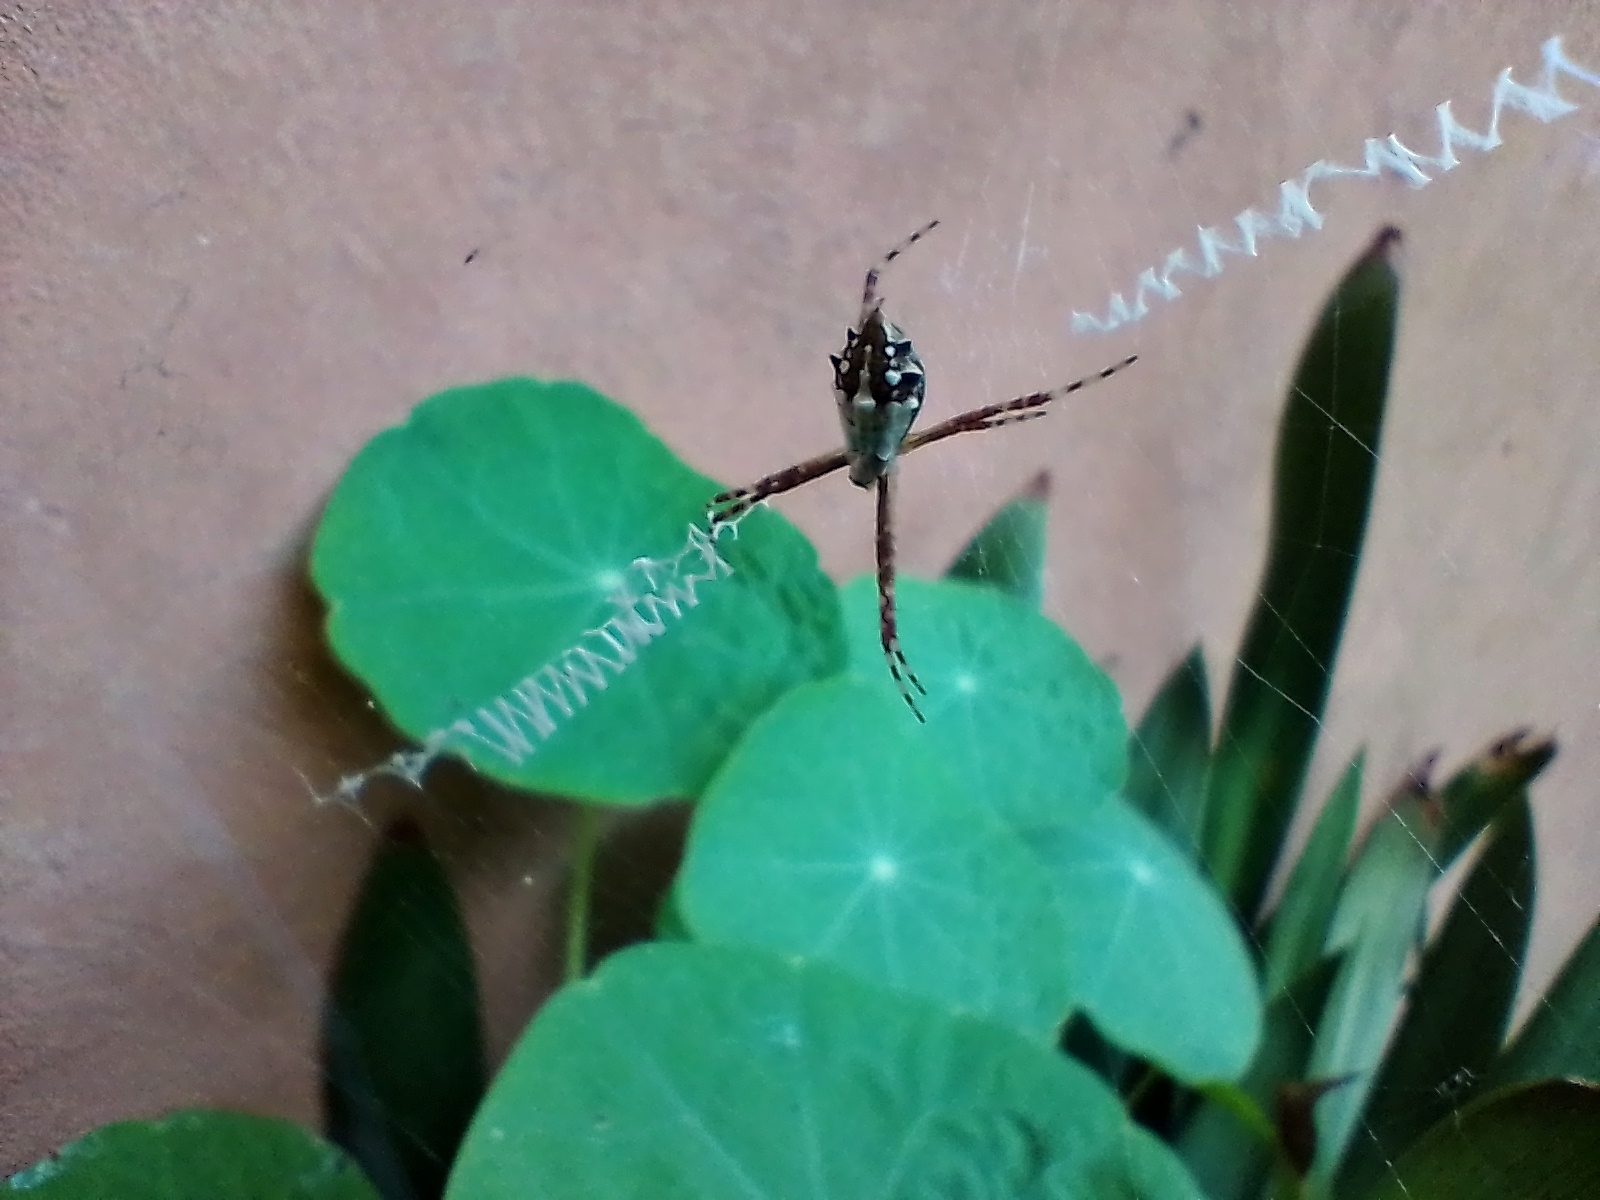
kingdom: Animalia
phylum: Arthropoda
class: Arachnida
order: Araneae
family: Araneidae
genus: Argiope
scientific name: Argiope argentata
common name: Orb weavers
